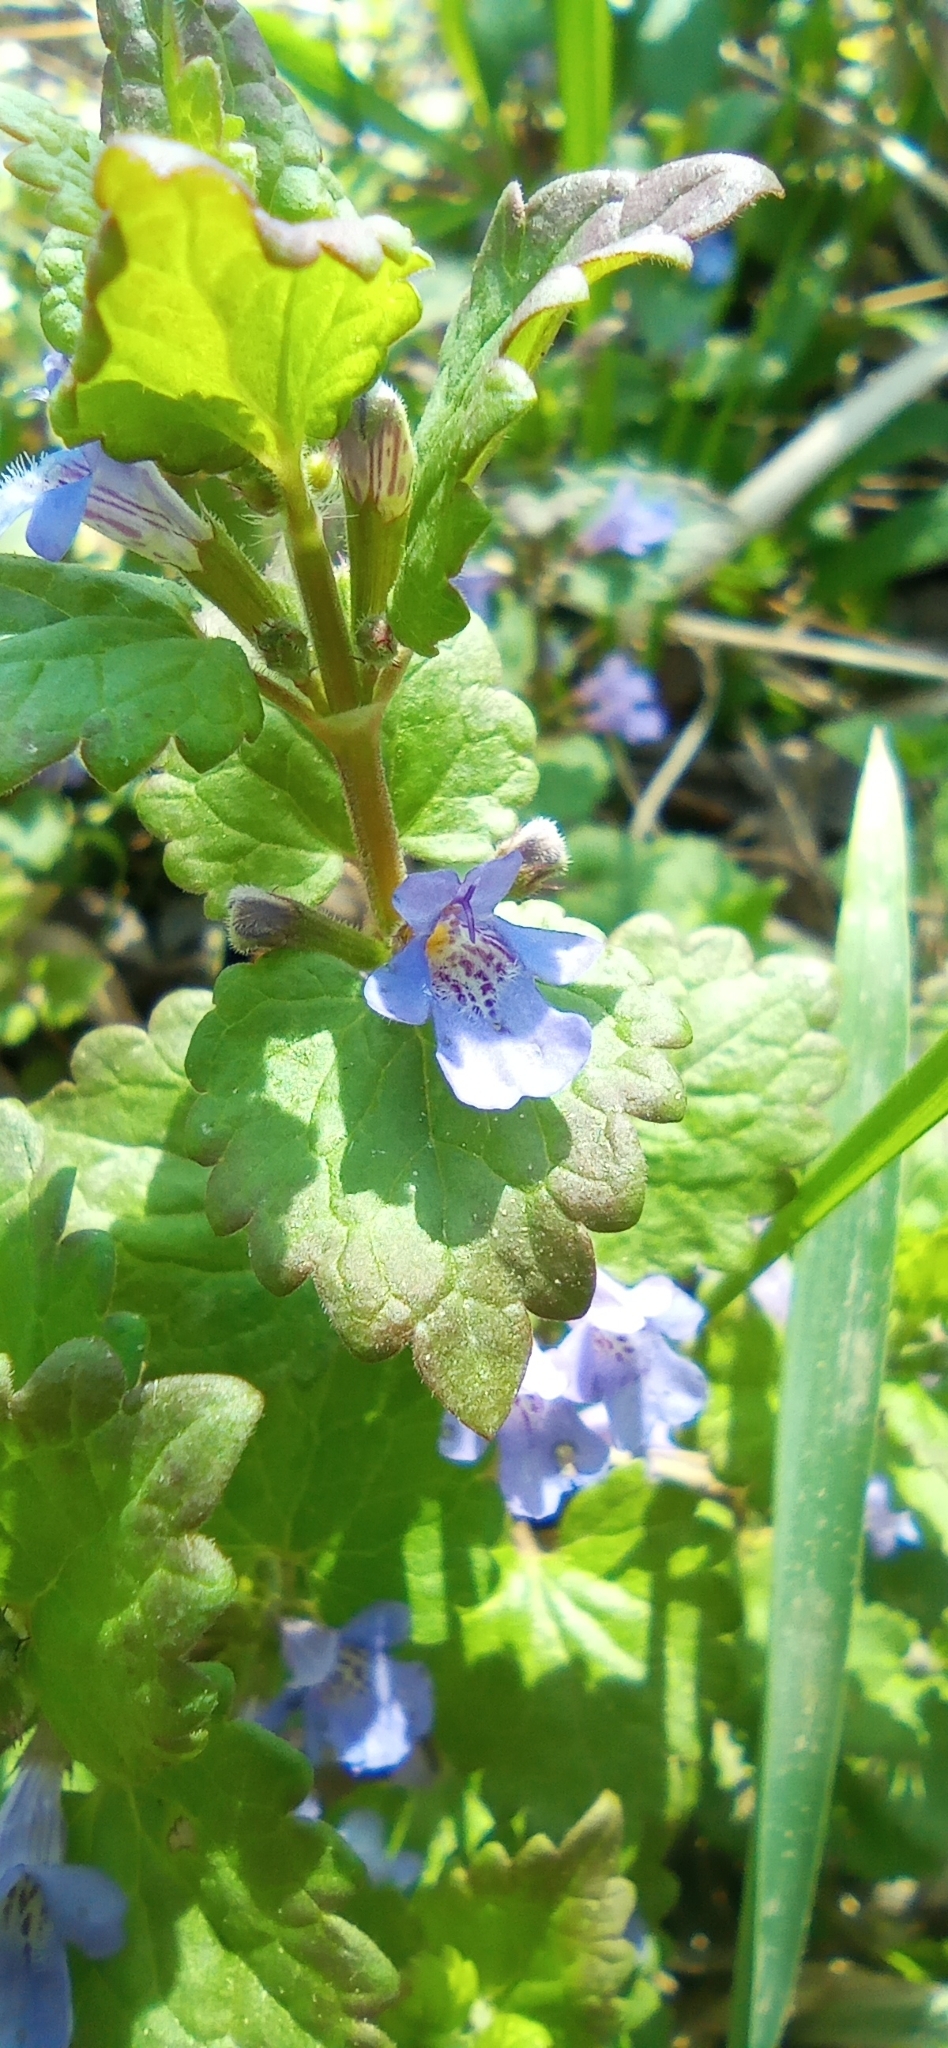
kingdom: Plantae
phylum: Tracheophyta
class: Magnoliopsida
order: Lamiales
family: Lamiaceae
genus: Glechoma
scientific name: Glechoma hederacea
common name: Ground ivy
